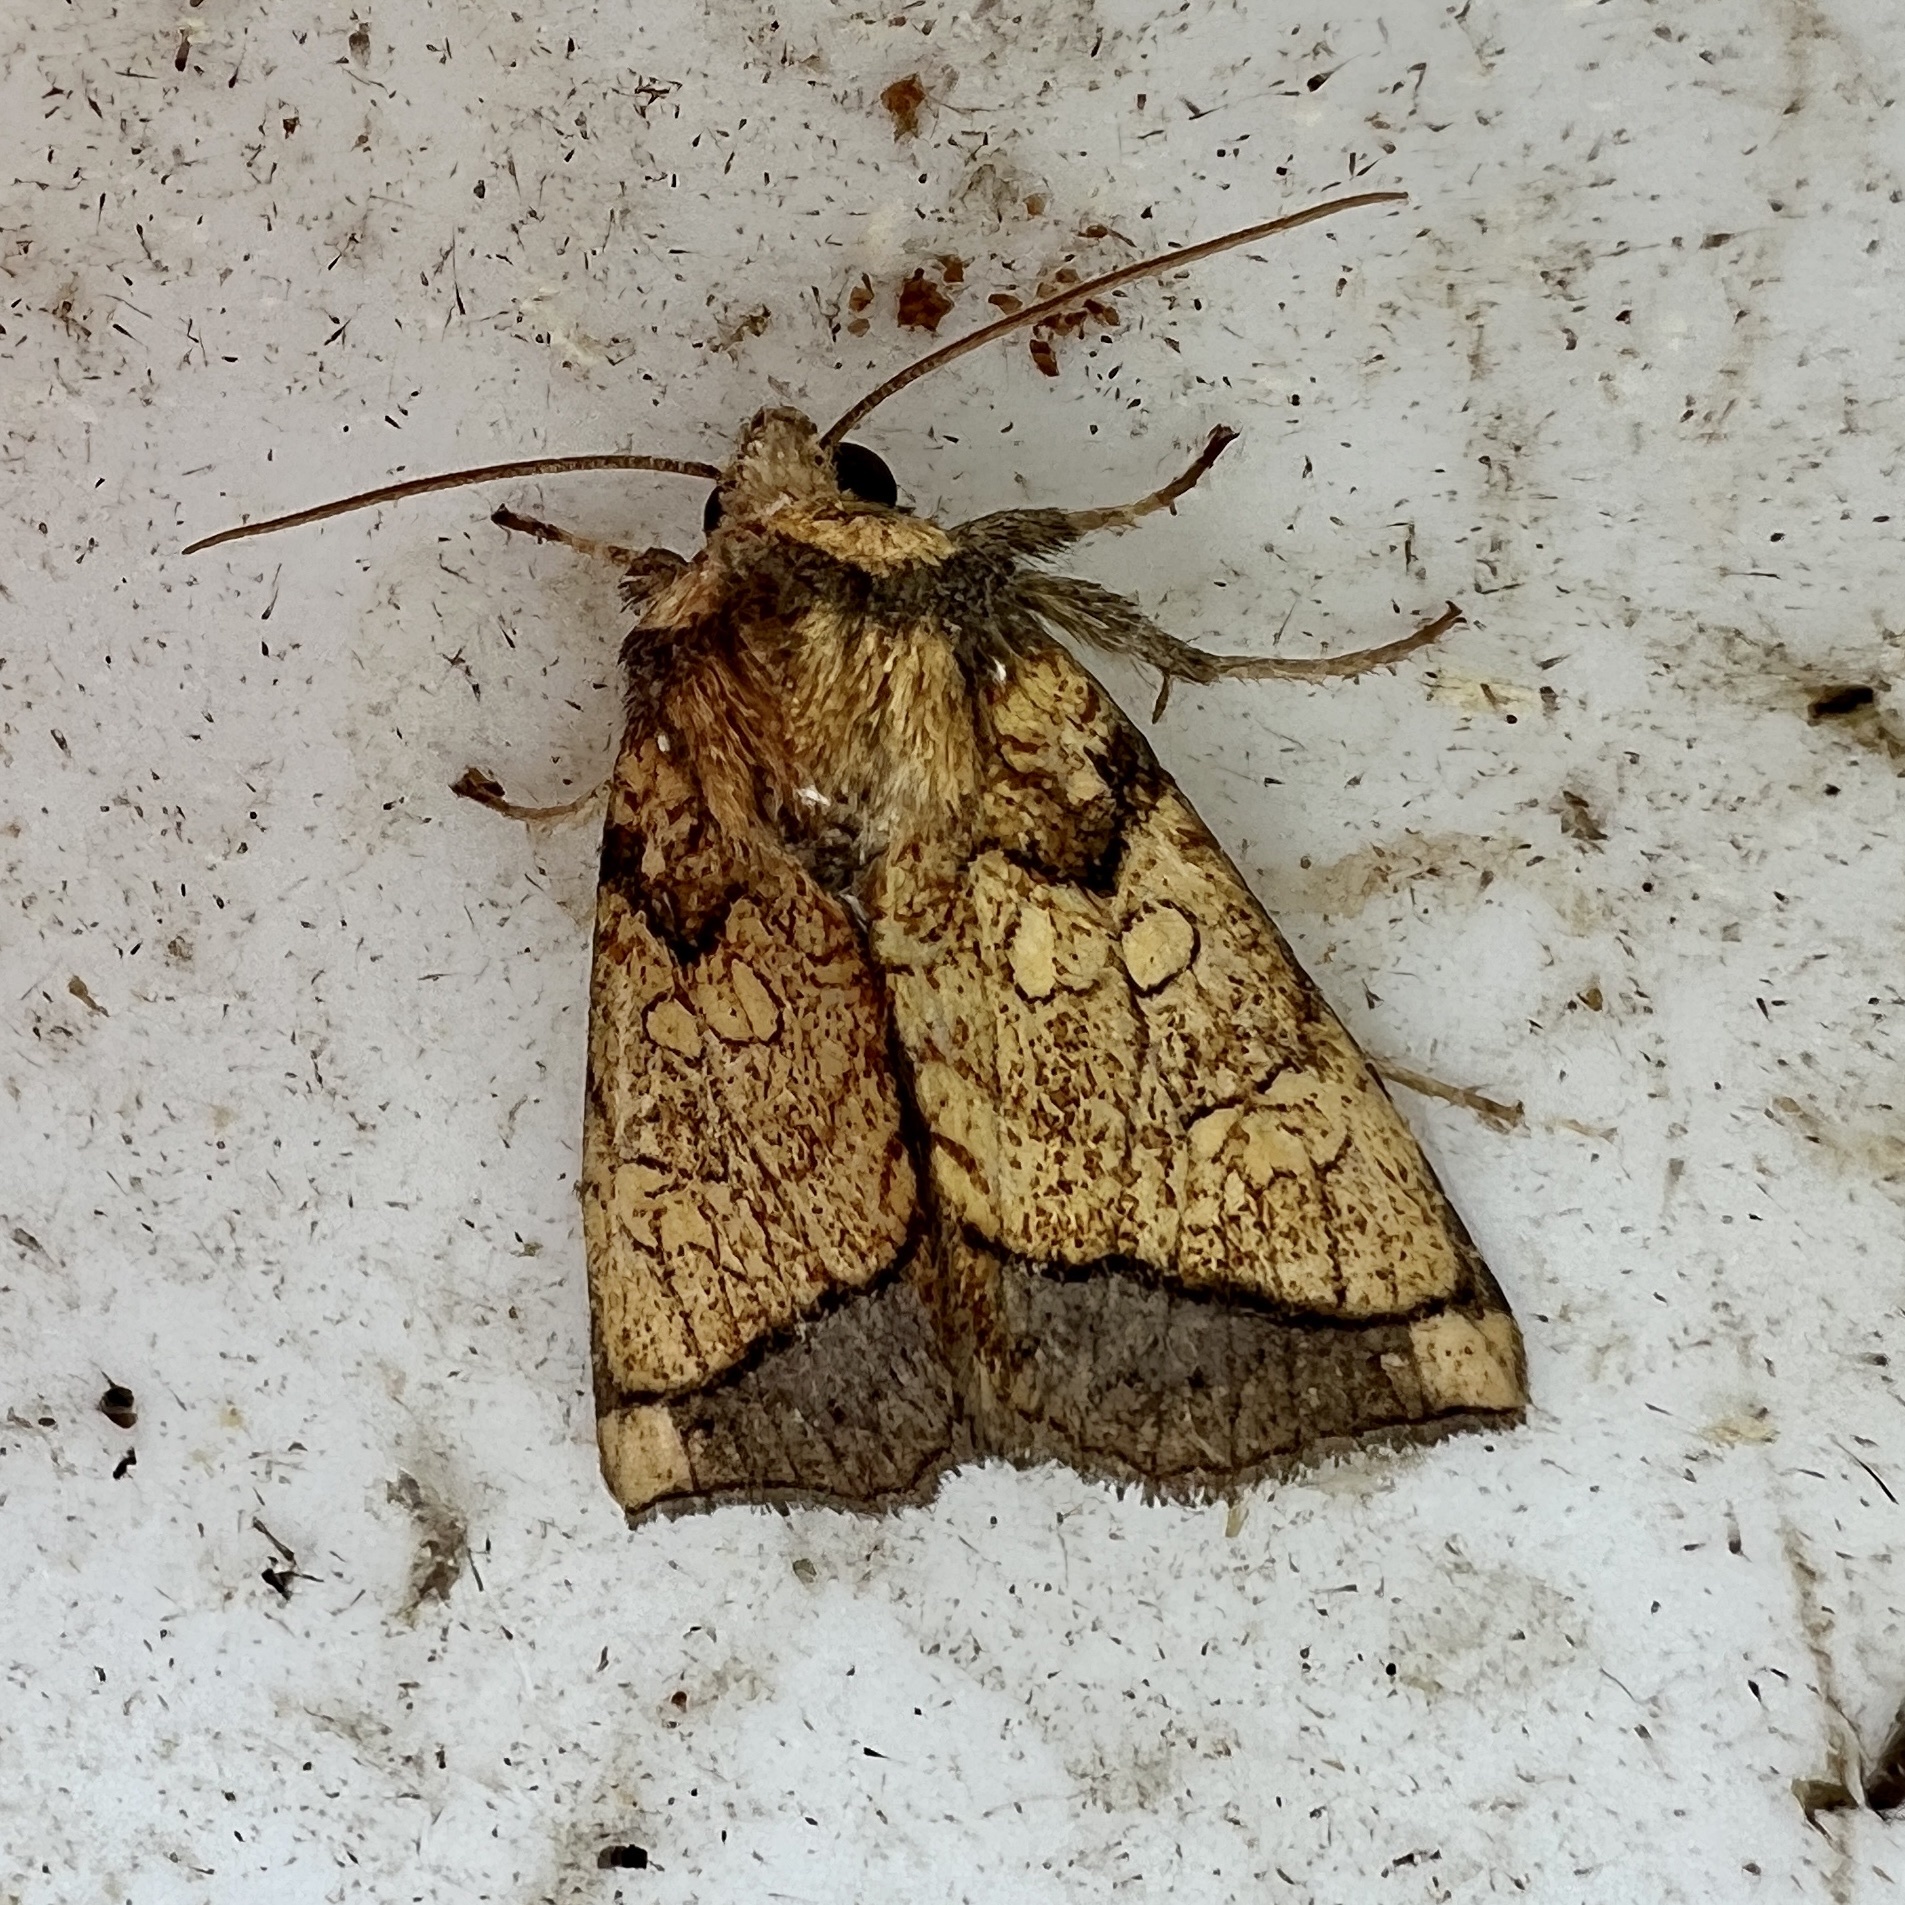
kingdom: Animalia
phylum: Arthropoda
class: Insecta
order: Lepidoptera
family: Noctuidae
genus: Papaipema
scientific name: Papaipema rigida
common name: Rigid sunflower borer moth
